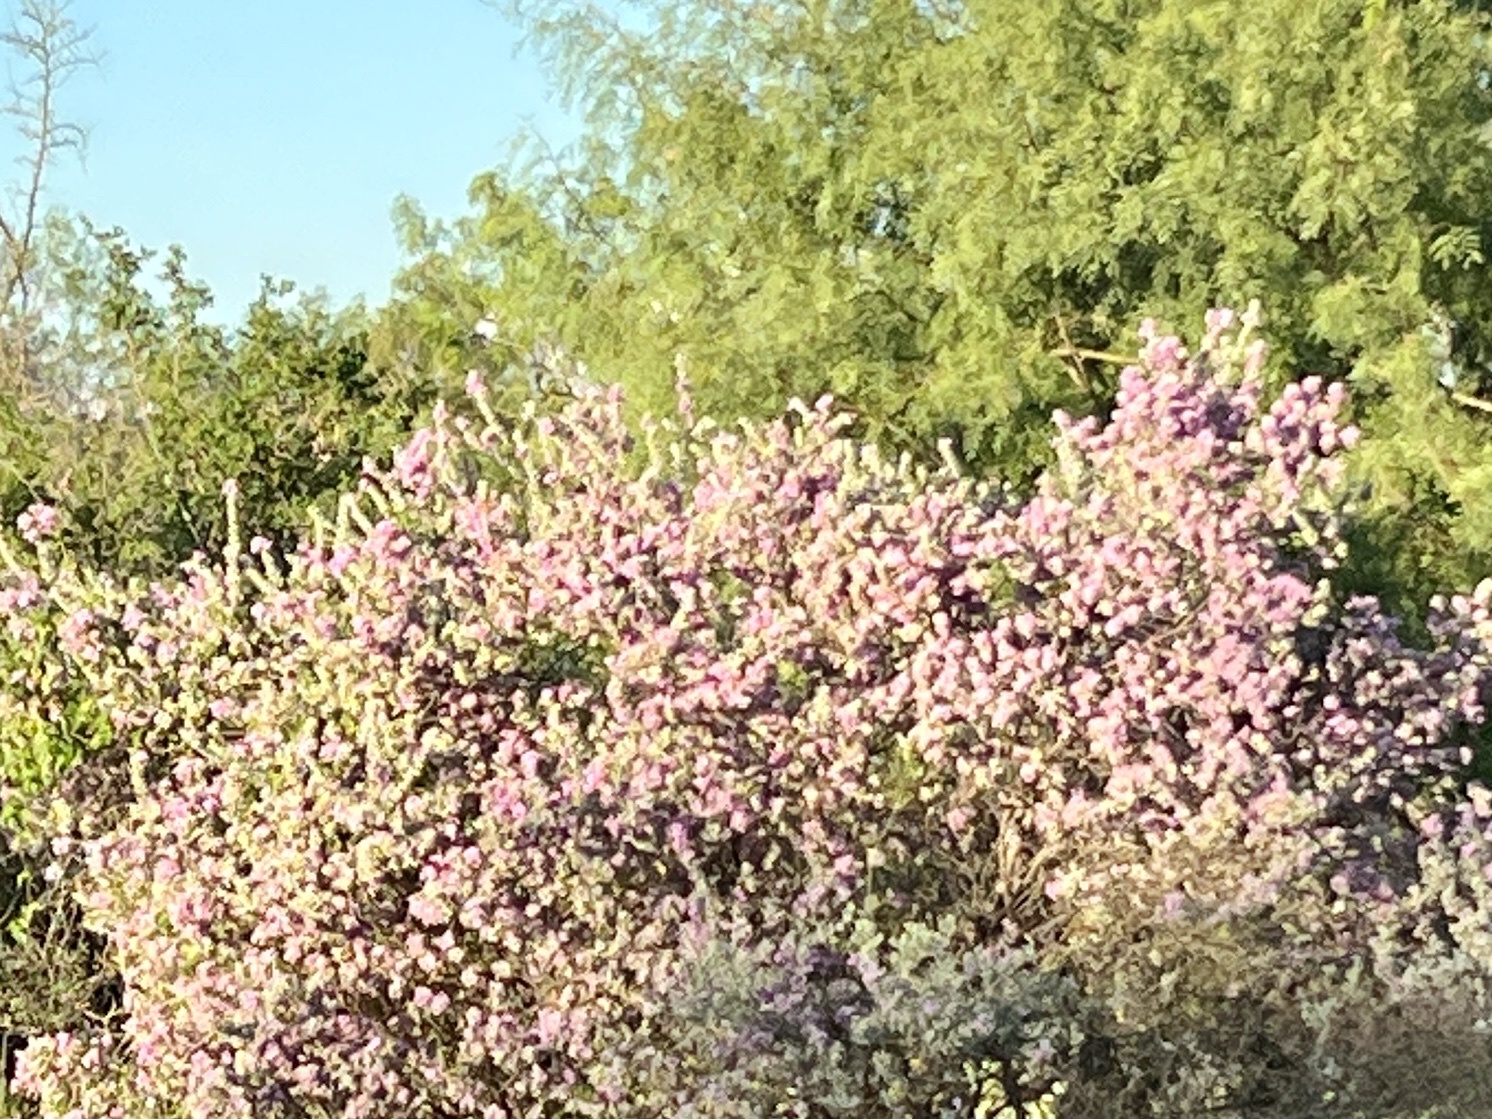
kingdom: Plantae
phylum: Tracheophyta
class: Magnoliopsida
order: Lamiales
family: Scrophulariaceae
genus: Leucophyllum
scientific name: Leucophyllum frutescens
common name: Texas silverleaf
